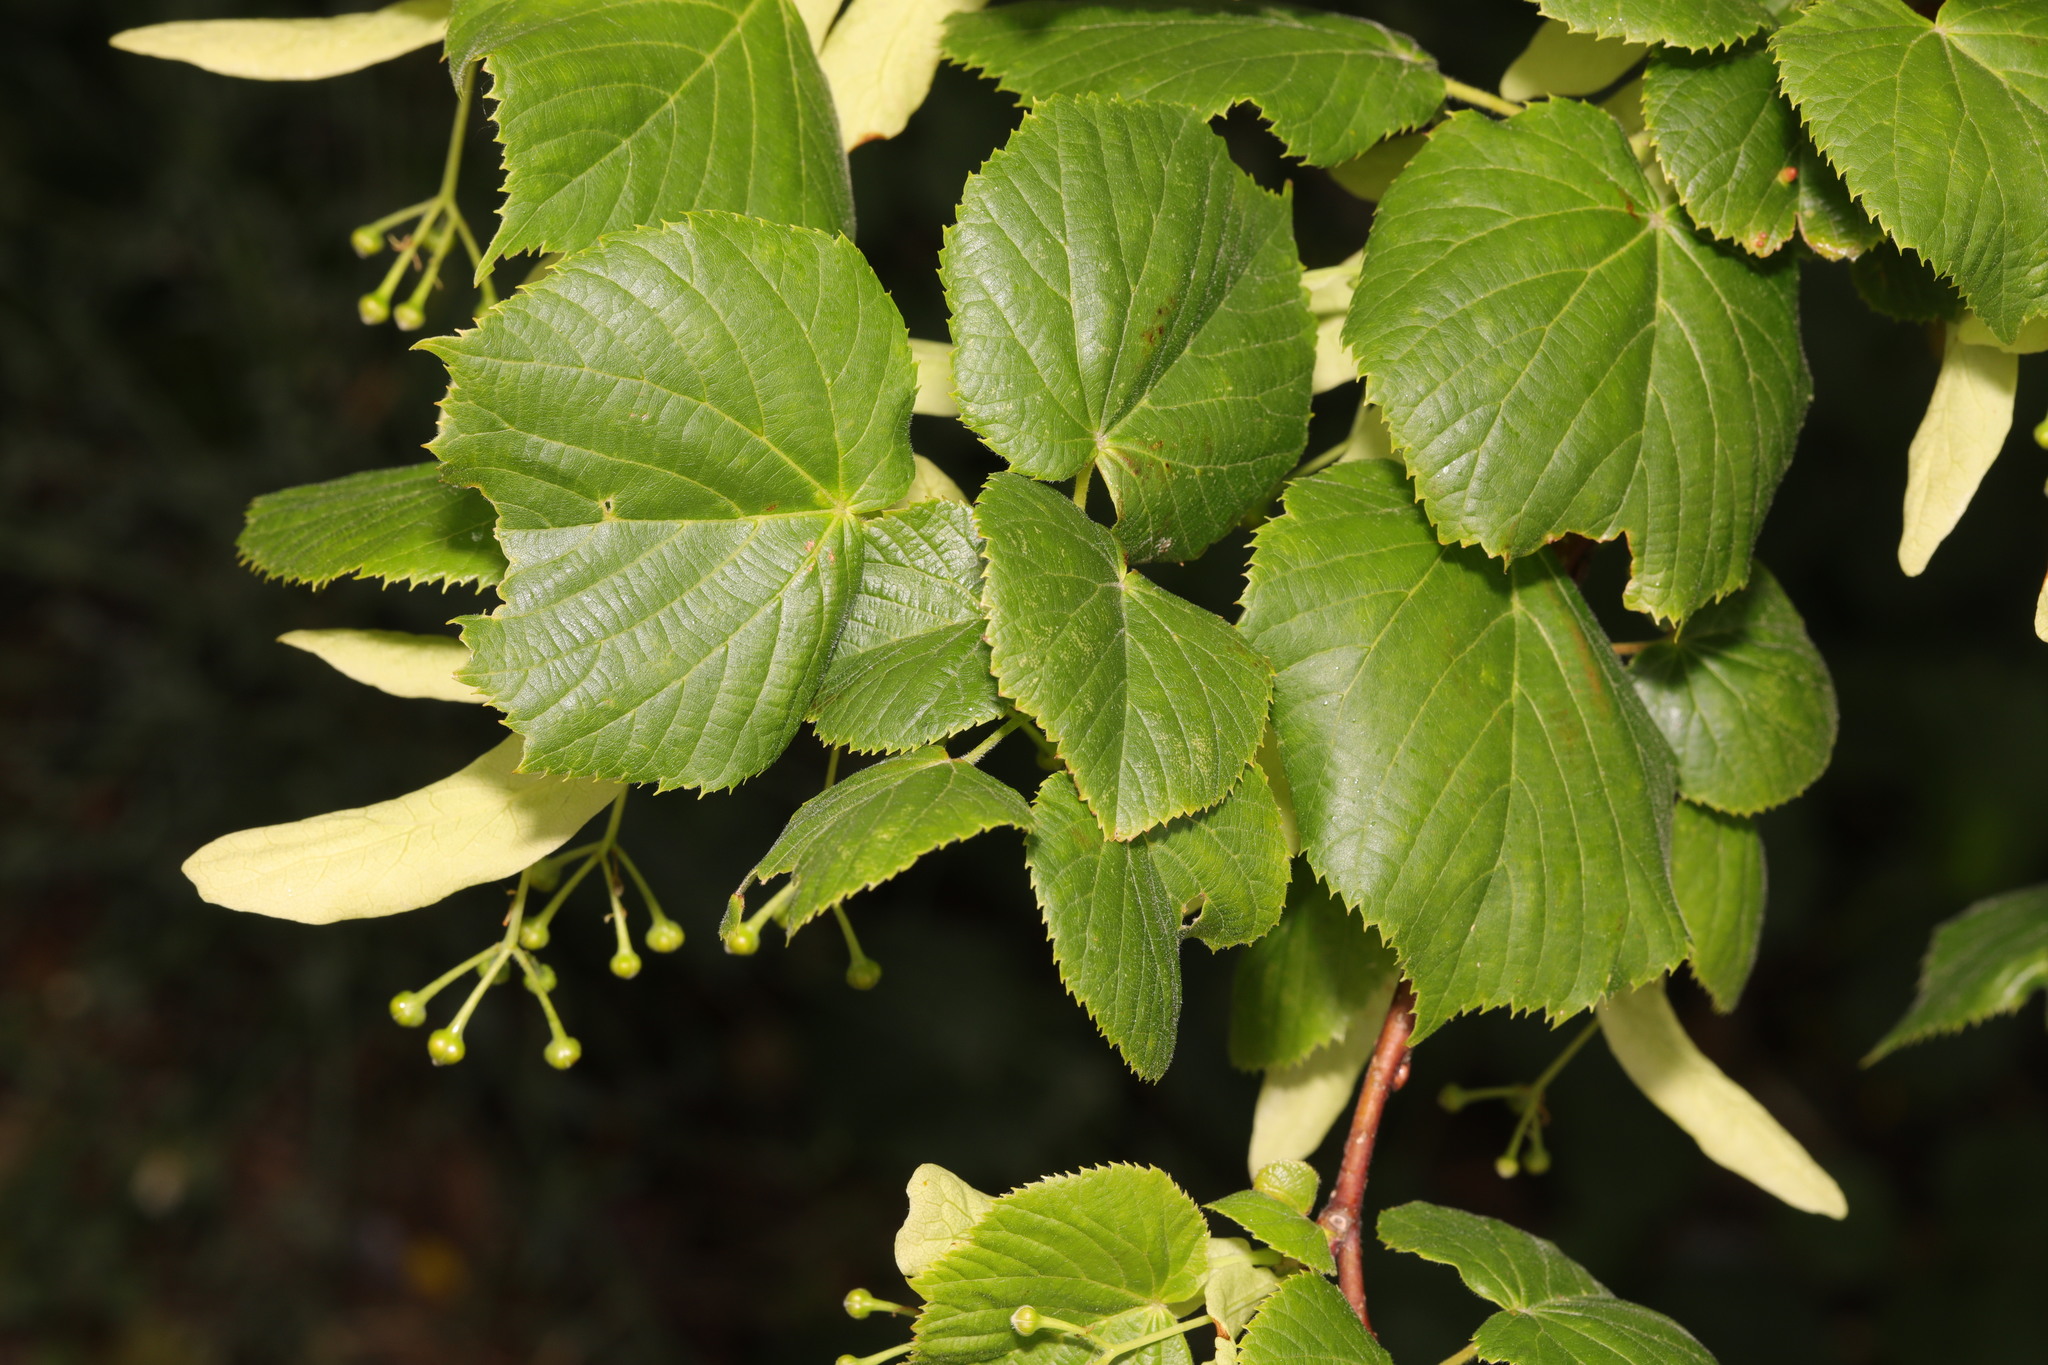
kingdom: Plantae
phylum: Tracheophyta
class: Magnoliopsida
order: Malvales
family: Malvaceae
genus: Tilia
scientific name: Tilia europaea
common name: European linden
